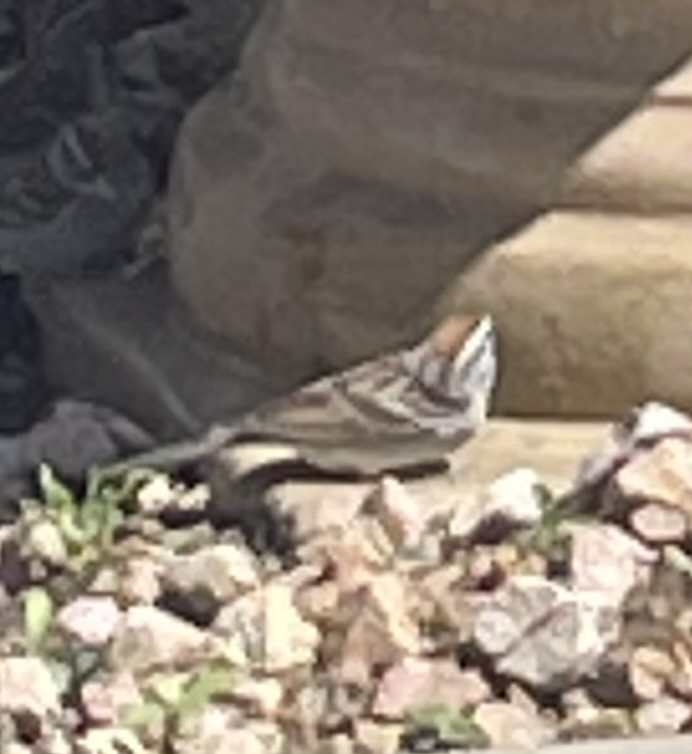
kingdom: Animalia
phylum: Chordata
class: Aves
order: Passeriformes
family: Passerellidae
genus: Spizella
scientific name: Spizella passerina
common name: Chipping sparrow
